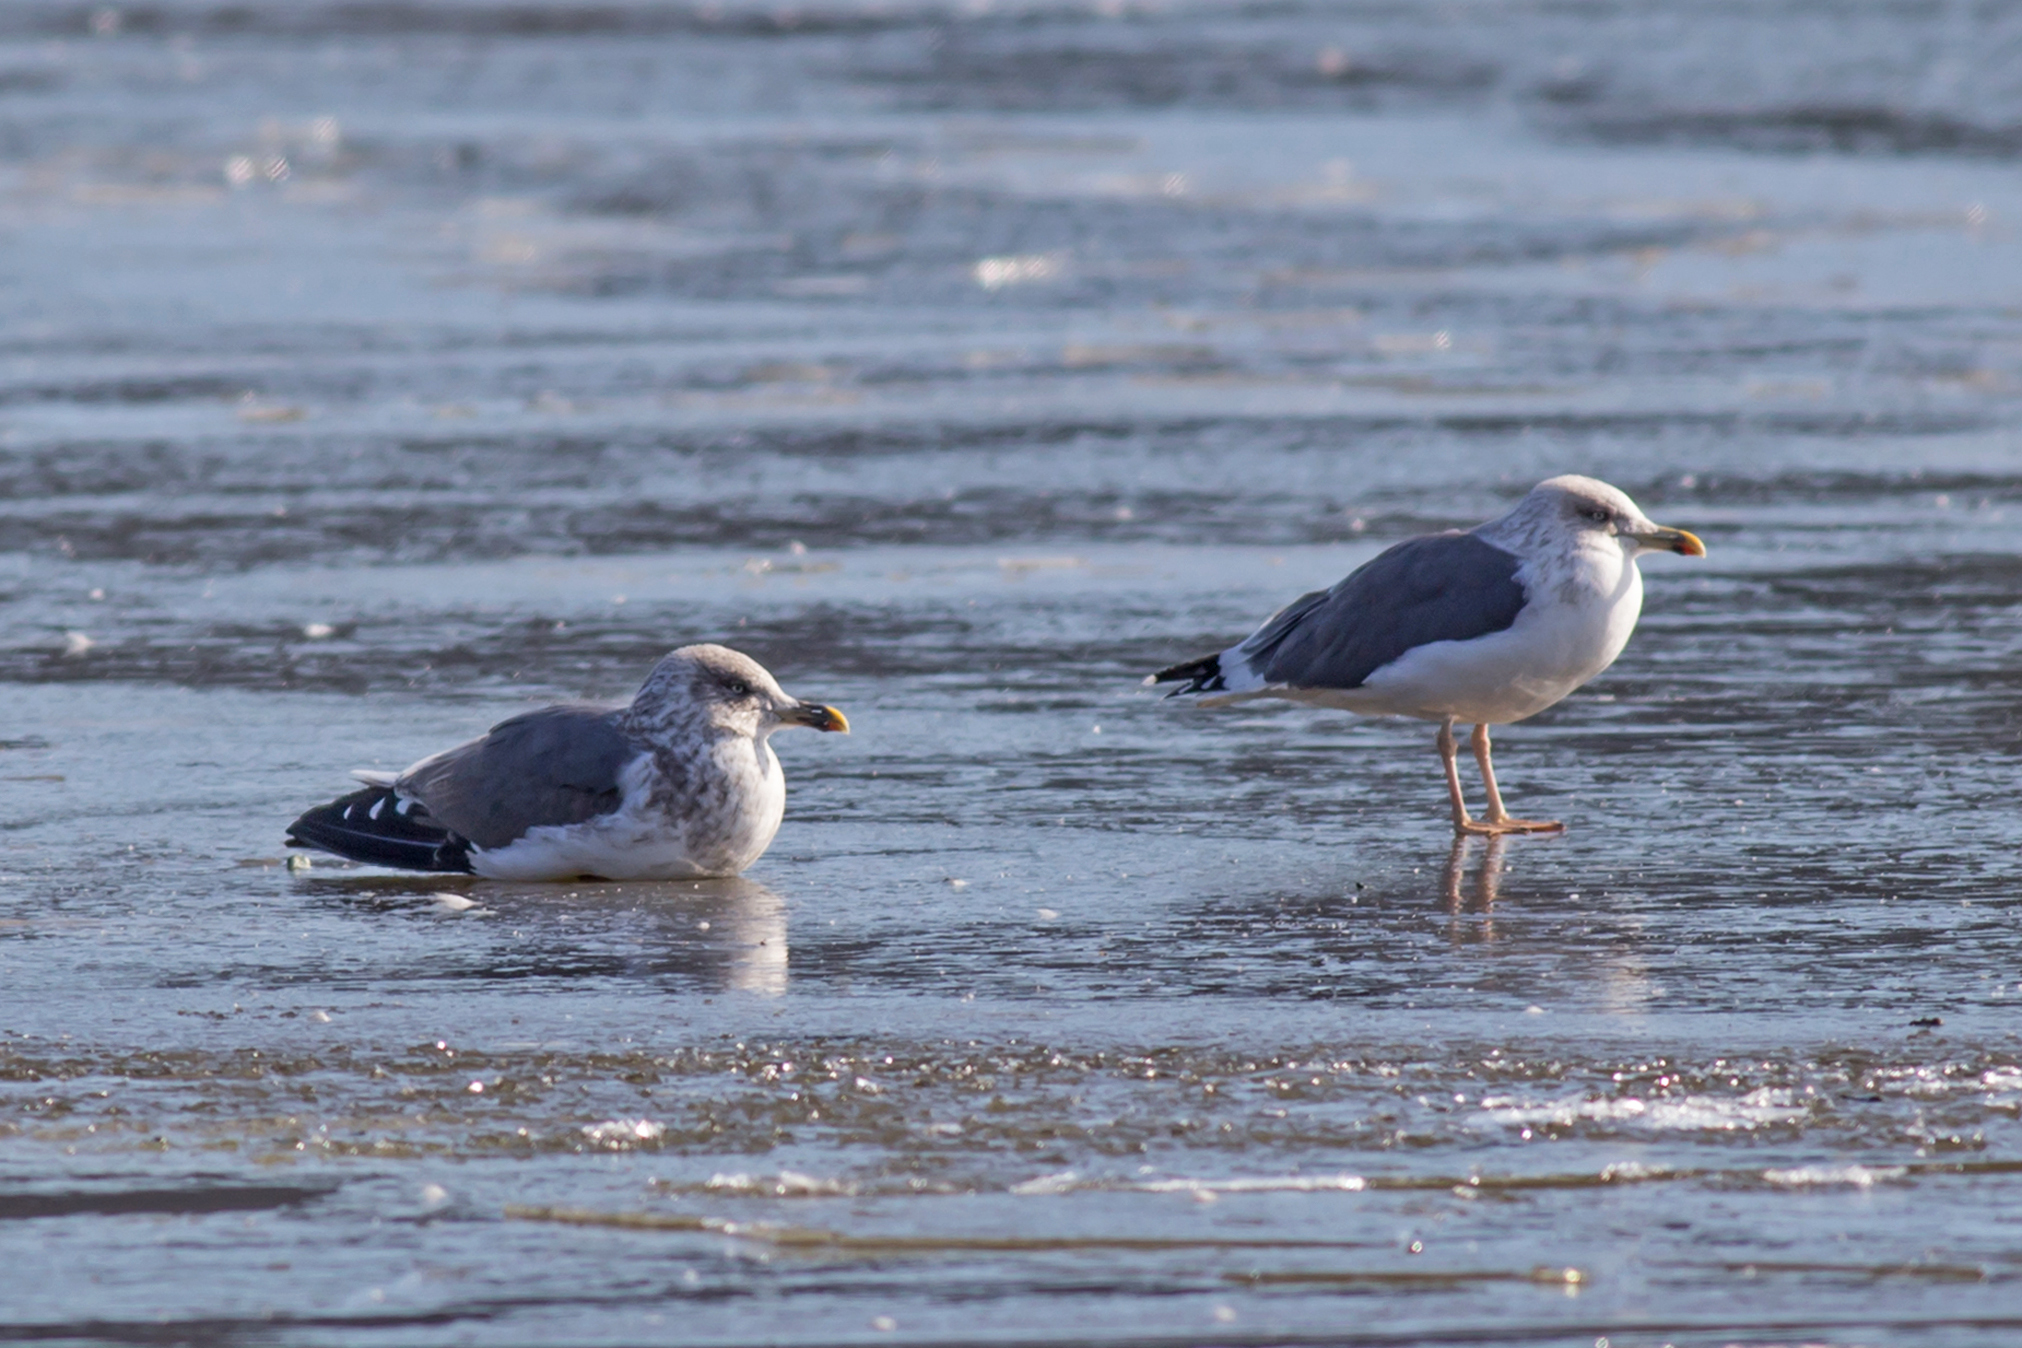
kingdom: Animalia
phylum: Chordata
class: Aves
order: Charadriiformes
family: Laridae
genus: Larus
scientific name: Larus fuscus
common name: Lesser black-backed gull
